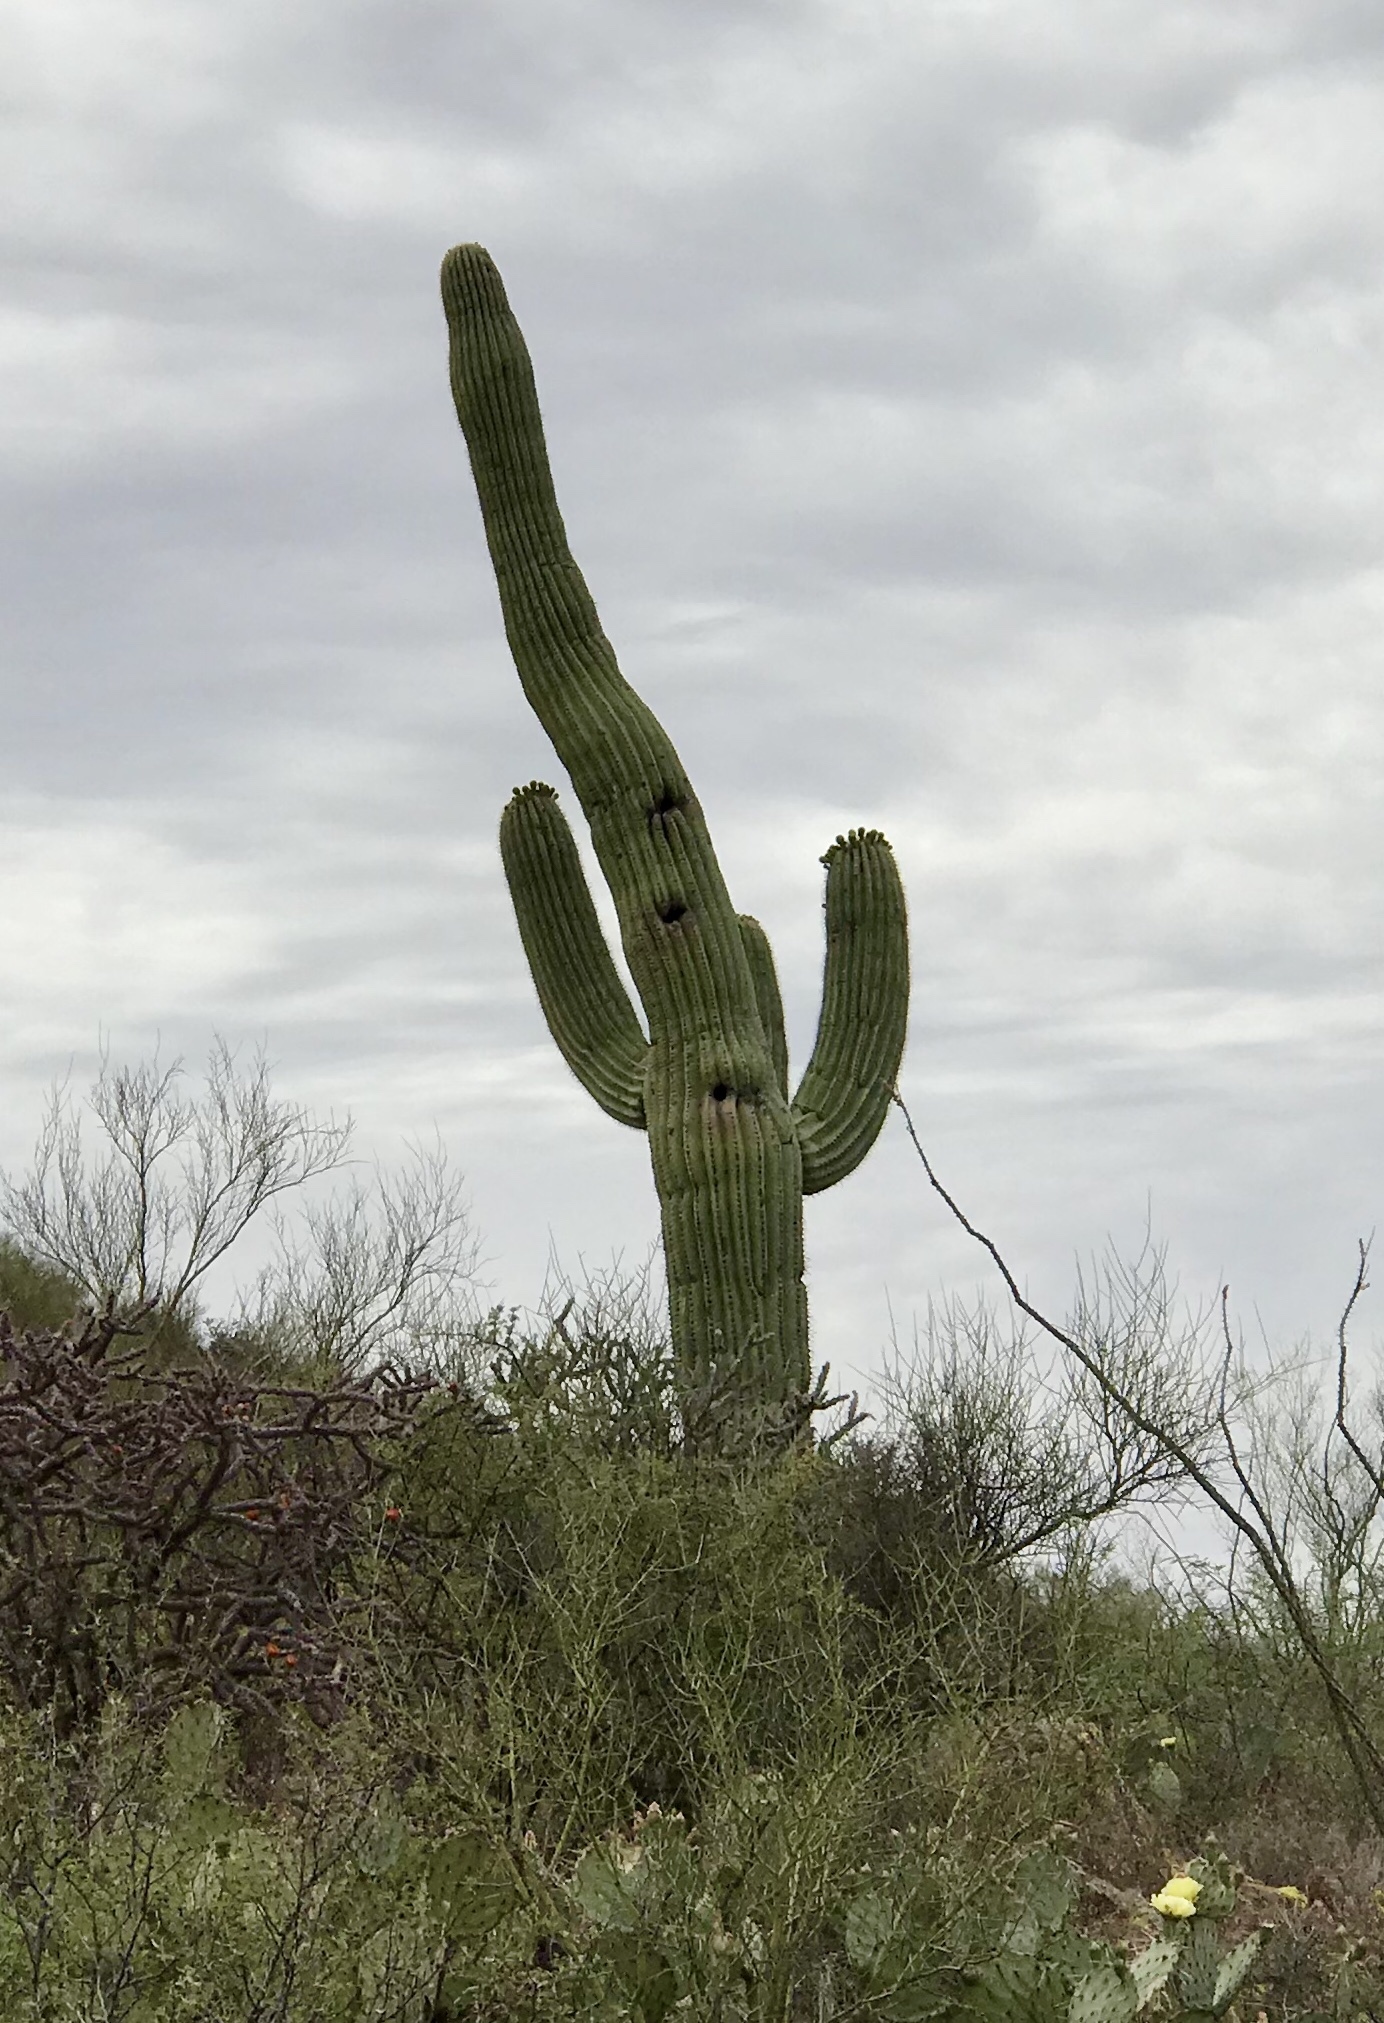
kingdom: Plantae
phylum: Tracheophyta
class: Magnoliopsida
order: Caryophyllales
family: Cactaceae
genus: Carnegiea
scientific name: Carnegiea gigantea
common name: Saguaro
